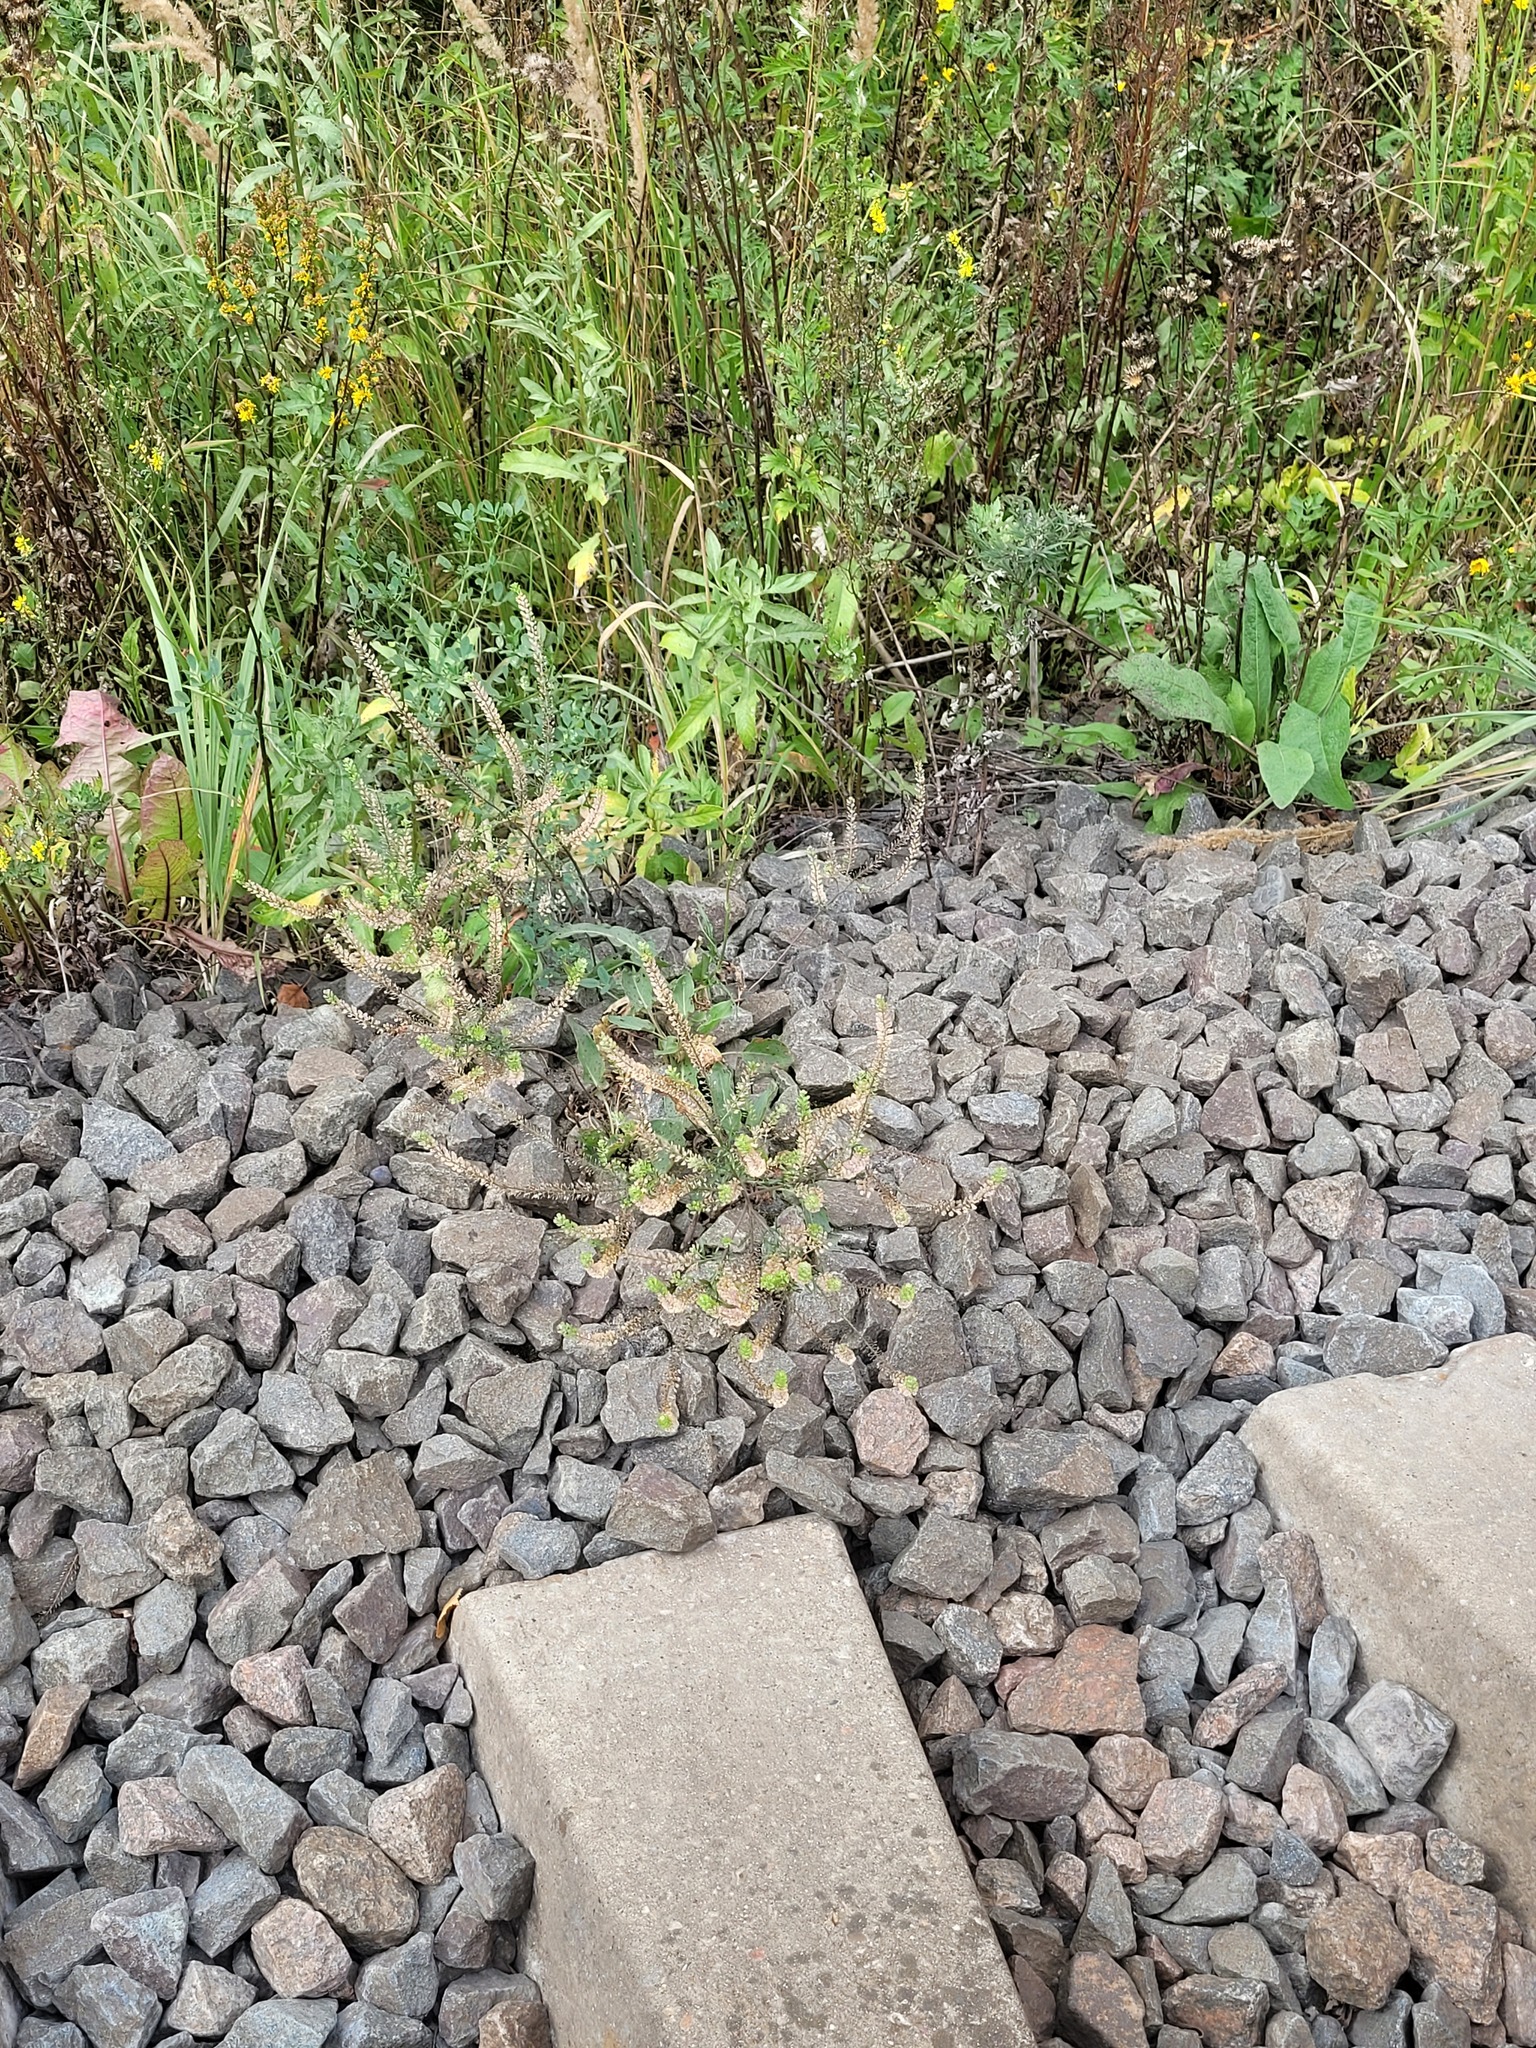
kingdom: Plantae
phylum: Tracheophyta
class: Magnoliopsida
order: Brassicales
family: Brassicaceae
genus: Lepidium
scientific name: Lepidium densiflorum
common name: Miner's pepperwort
